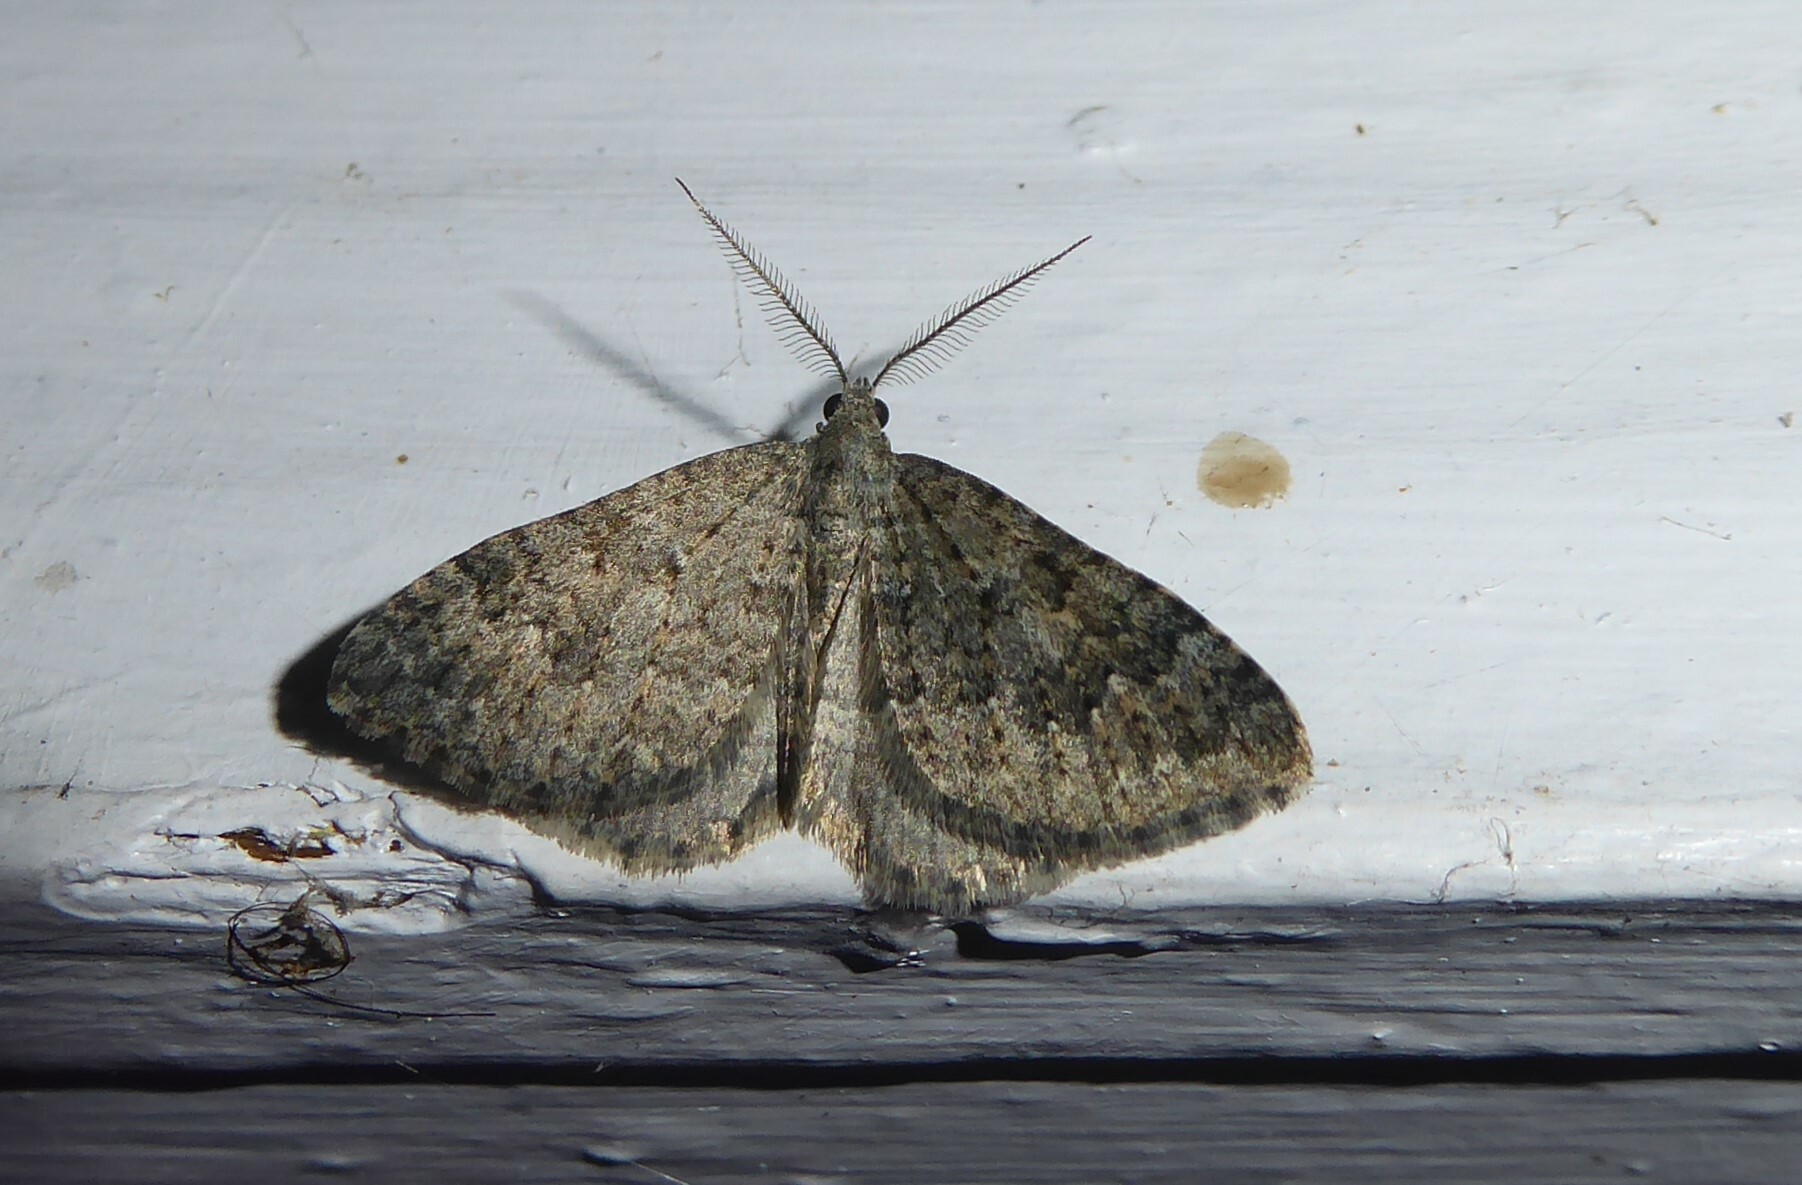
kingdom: Animalia
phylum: Arthropoda
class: Insecta
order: Lepidoptera
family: Geometridae
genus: Helastia
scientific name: Helastia corcularia
